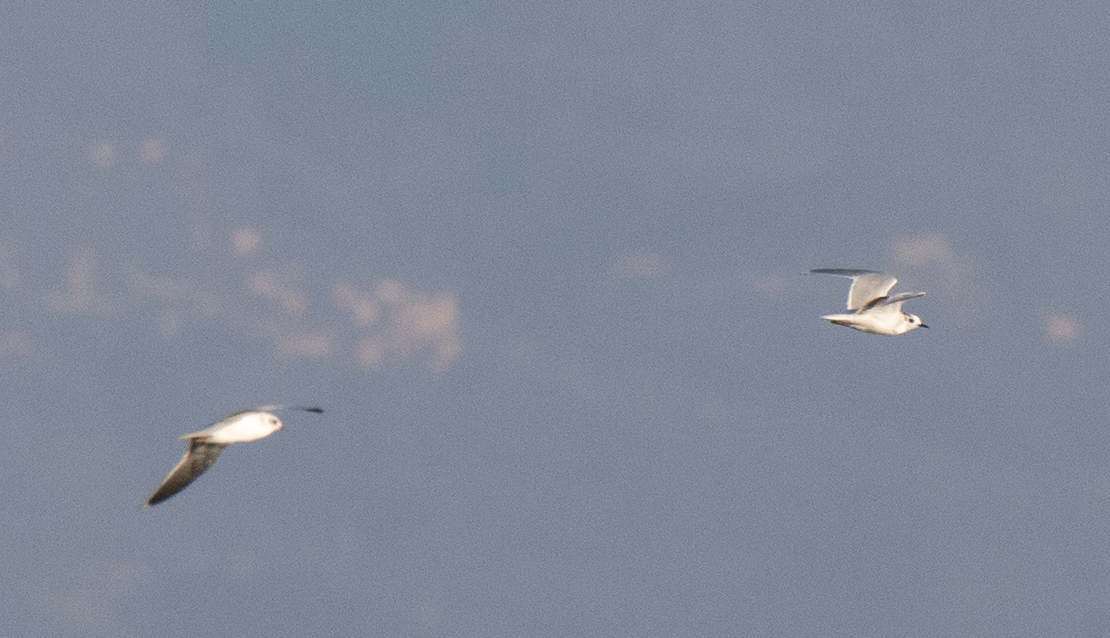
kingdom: Animalia
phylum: Chordata
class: Aves
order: Charadriiformes
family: Laridae
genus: Hydrocoloeus
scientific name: Hydrocoloeus minutus
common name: Little gull
